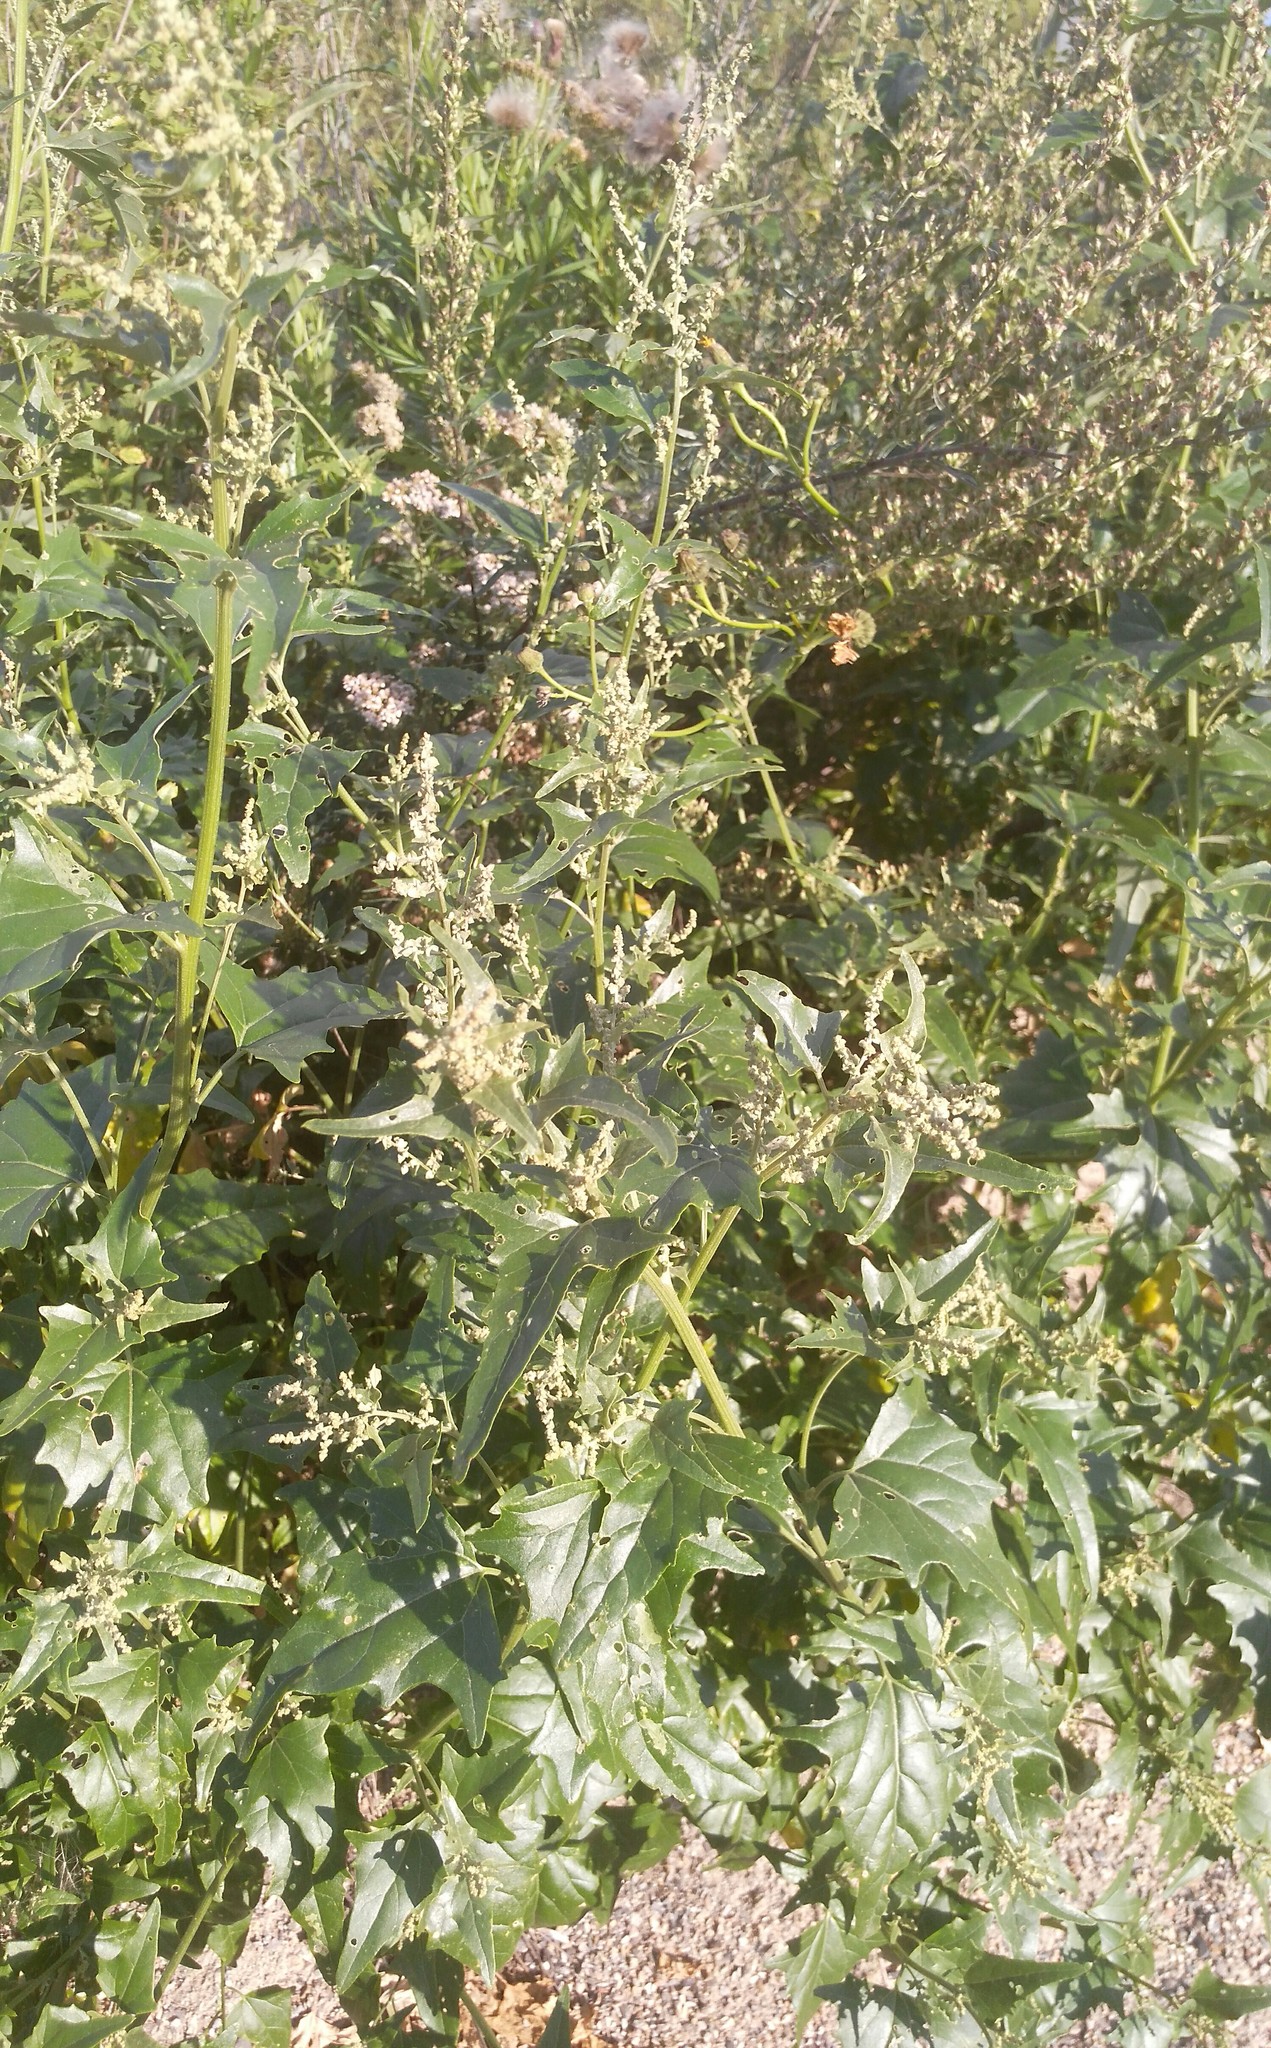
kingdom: Plantae
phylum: Tracheophyta
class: Magnoliopsida
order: Caryophyllales
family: Amaranthaceae
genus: Atriplex
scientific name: Atriplex sagittata
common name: Purple orache
